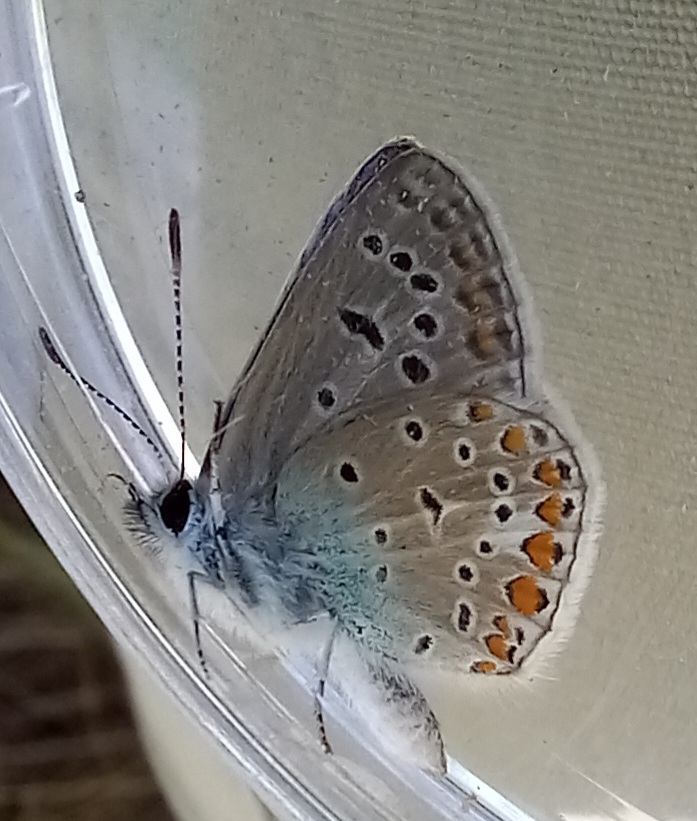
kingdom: Animalia
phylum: Arthropoda
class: Insecta
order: Lepidoptera
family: Lycaenidae
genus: Polyommatus
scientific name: Polyommatus icarus
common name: Common blue
